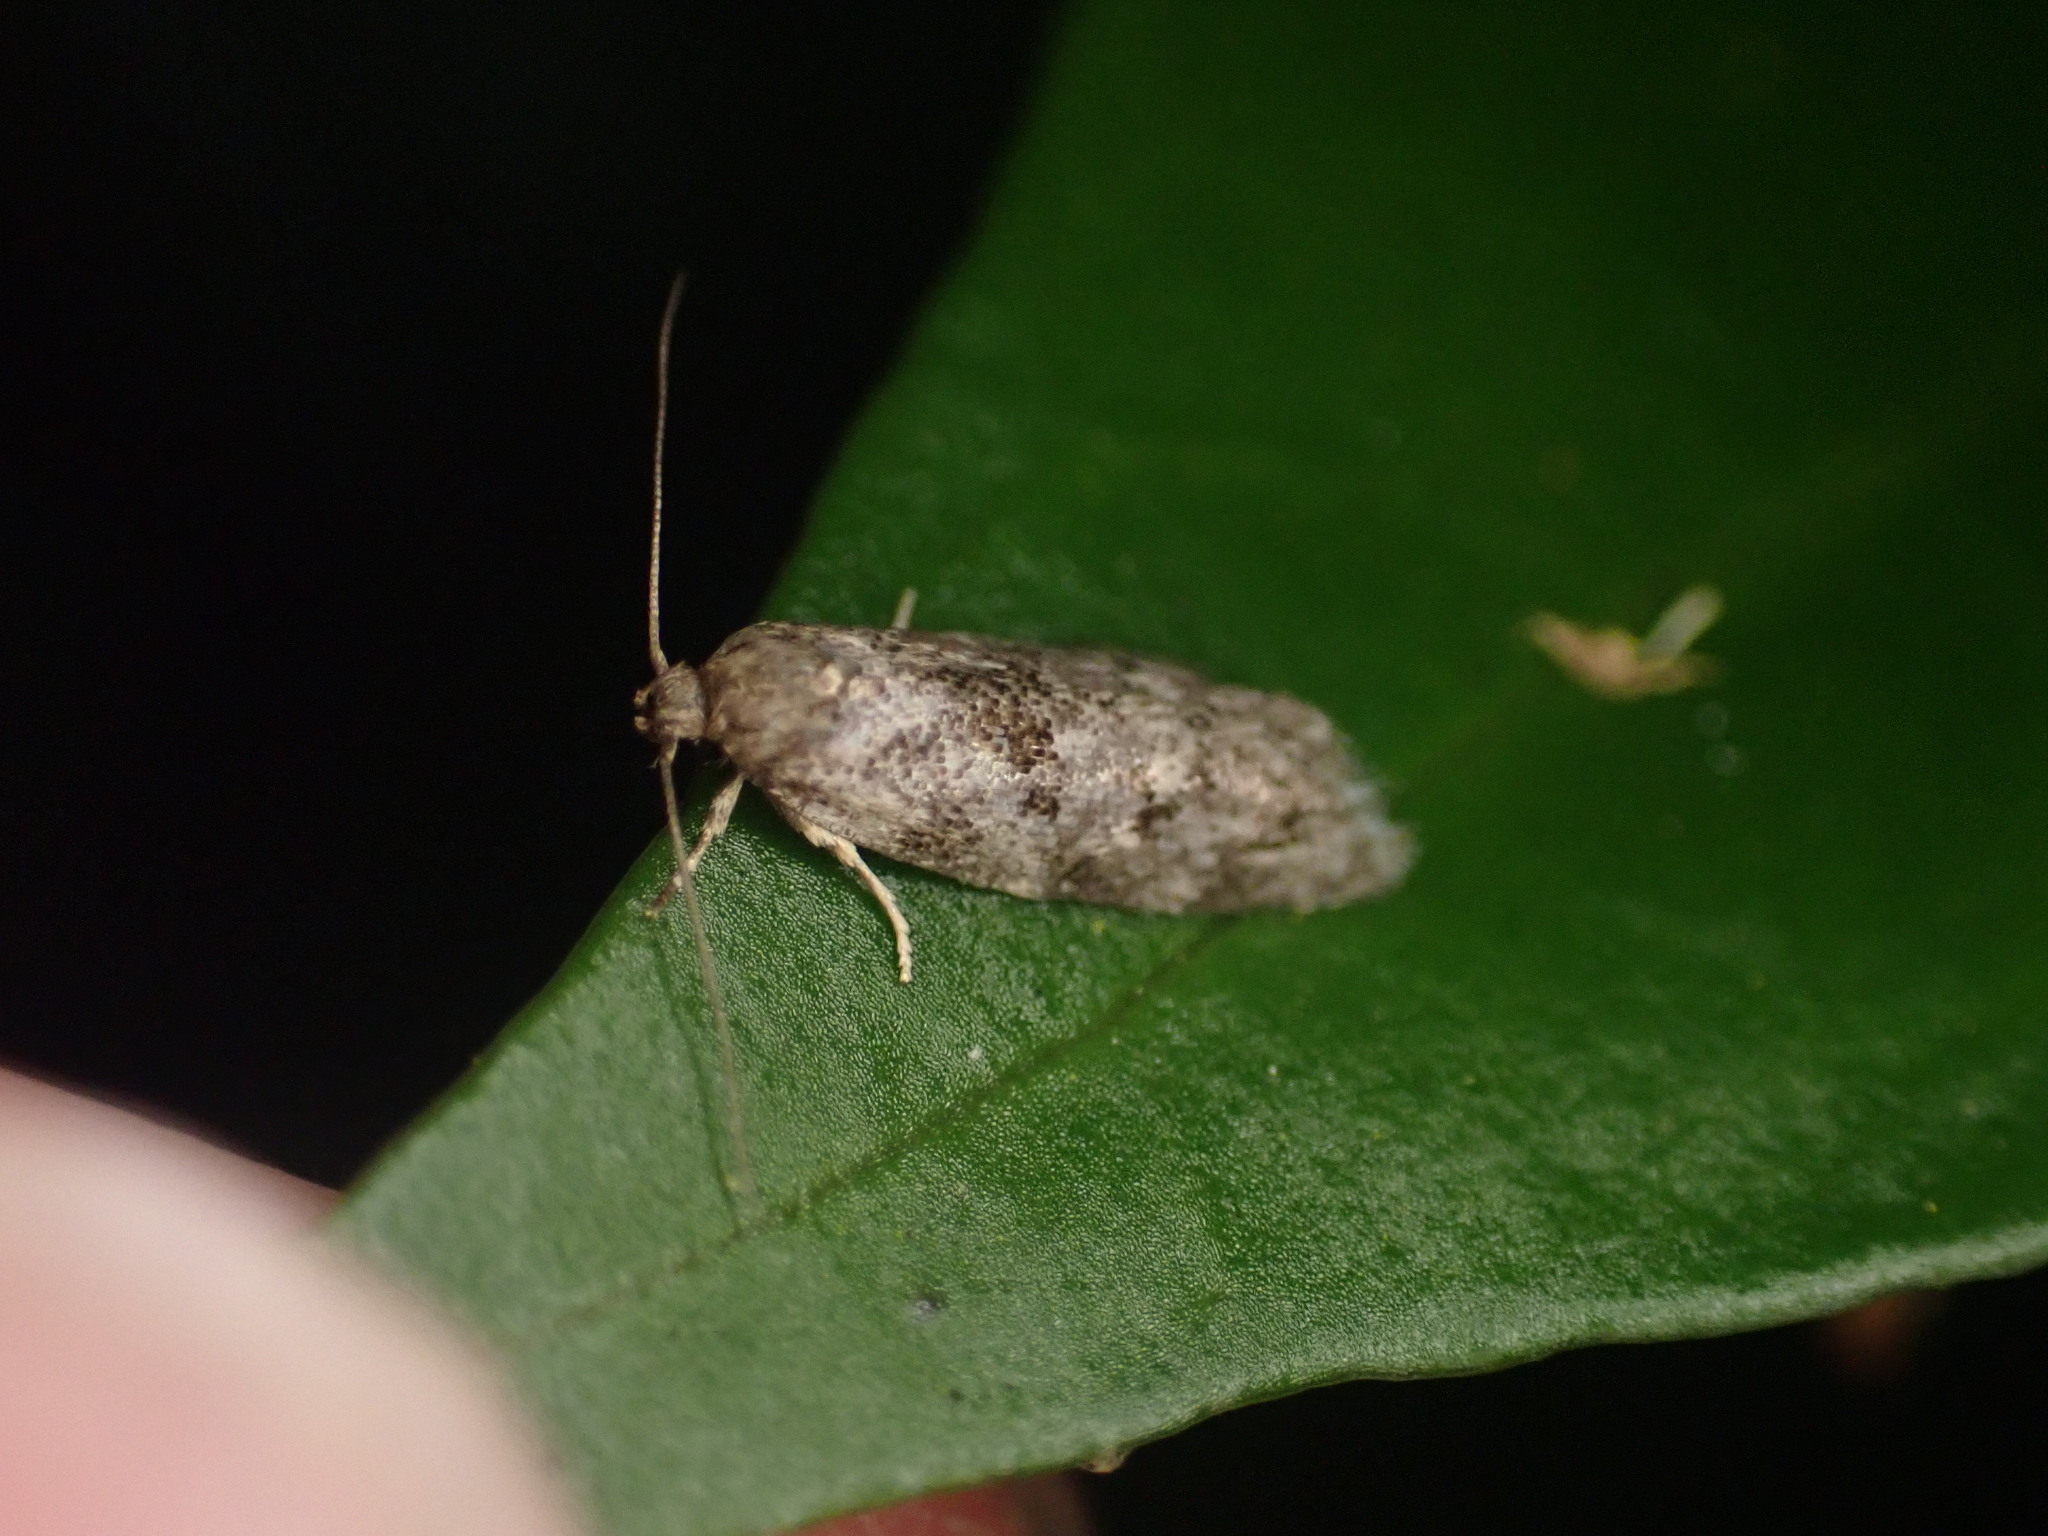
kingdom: Animalia
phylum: Arthropoda
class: Insecta
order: Lepidoptera
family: Oecophoridae
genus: Tingena
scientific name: Tingena clarkei
